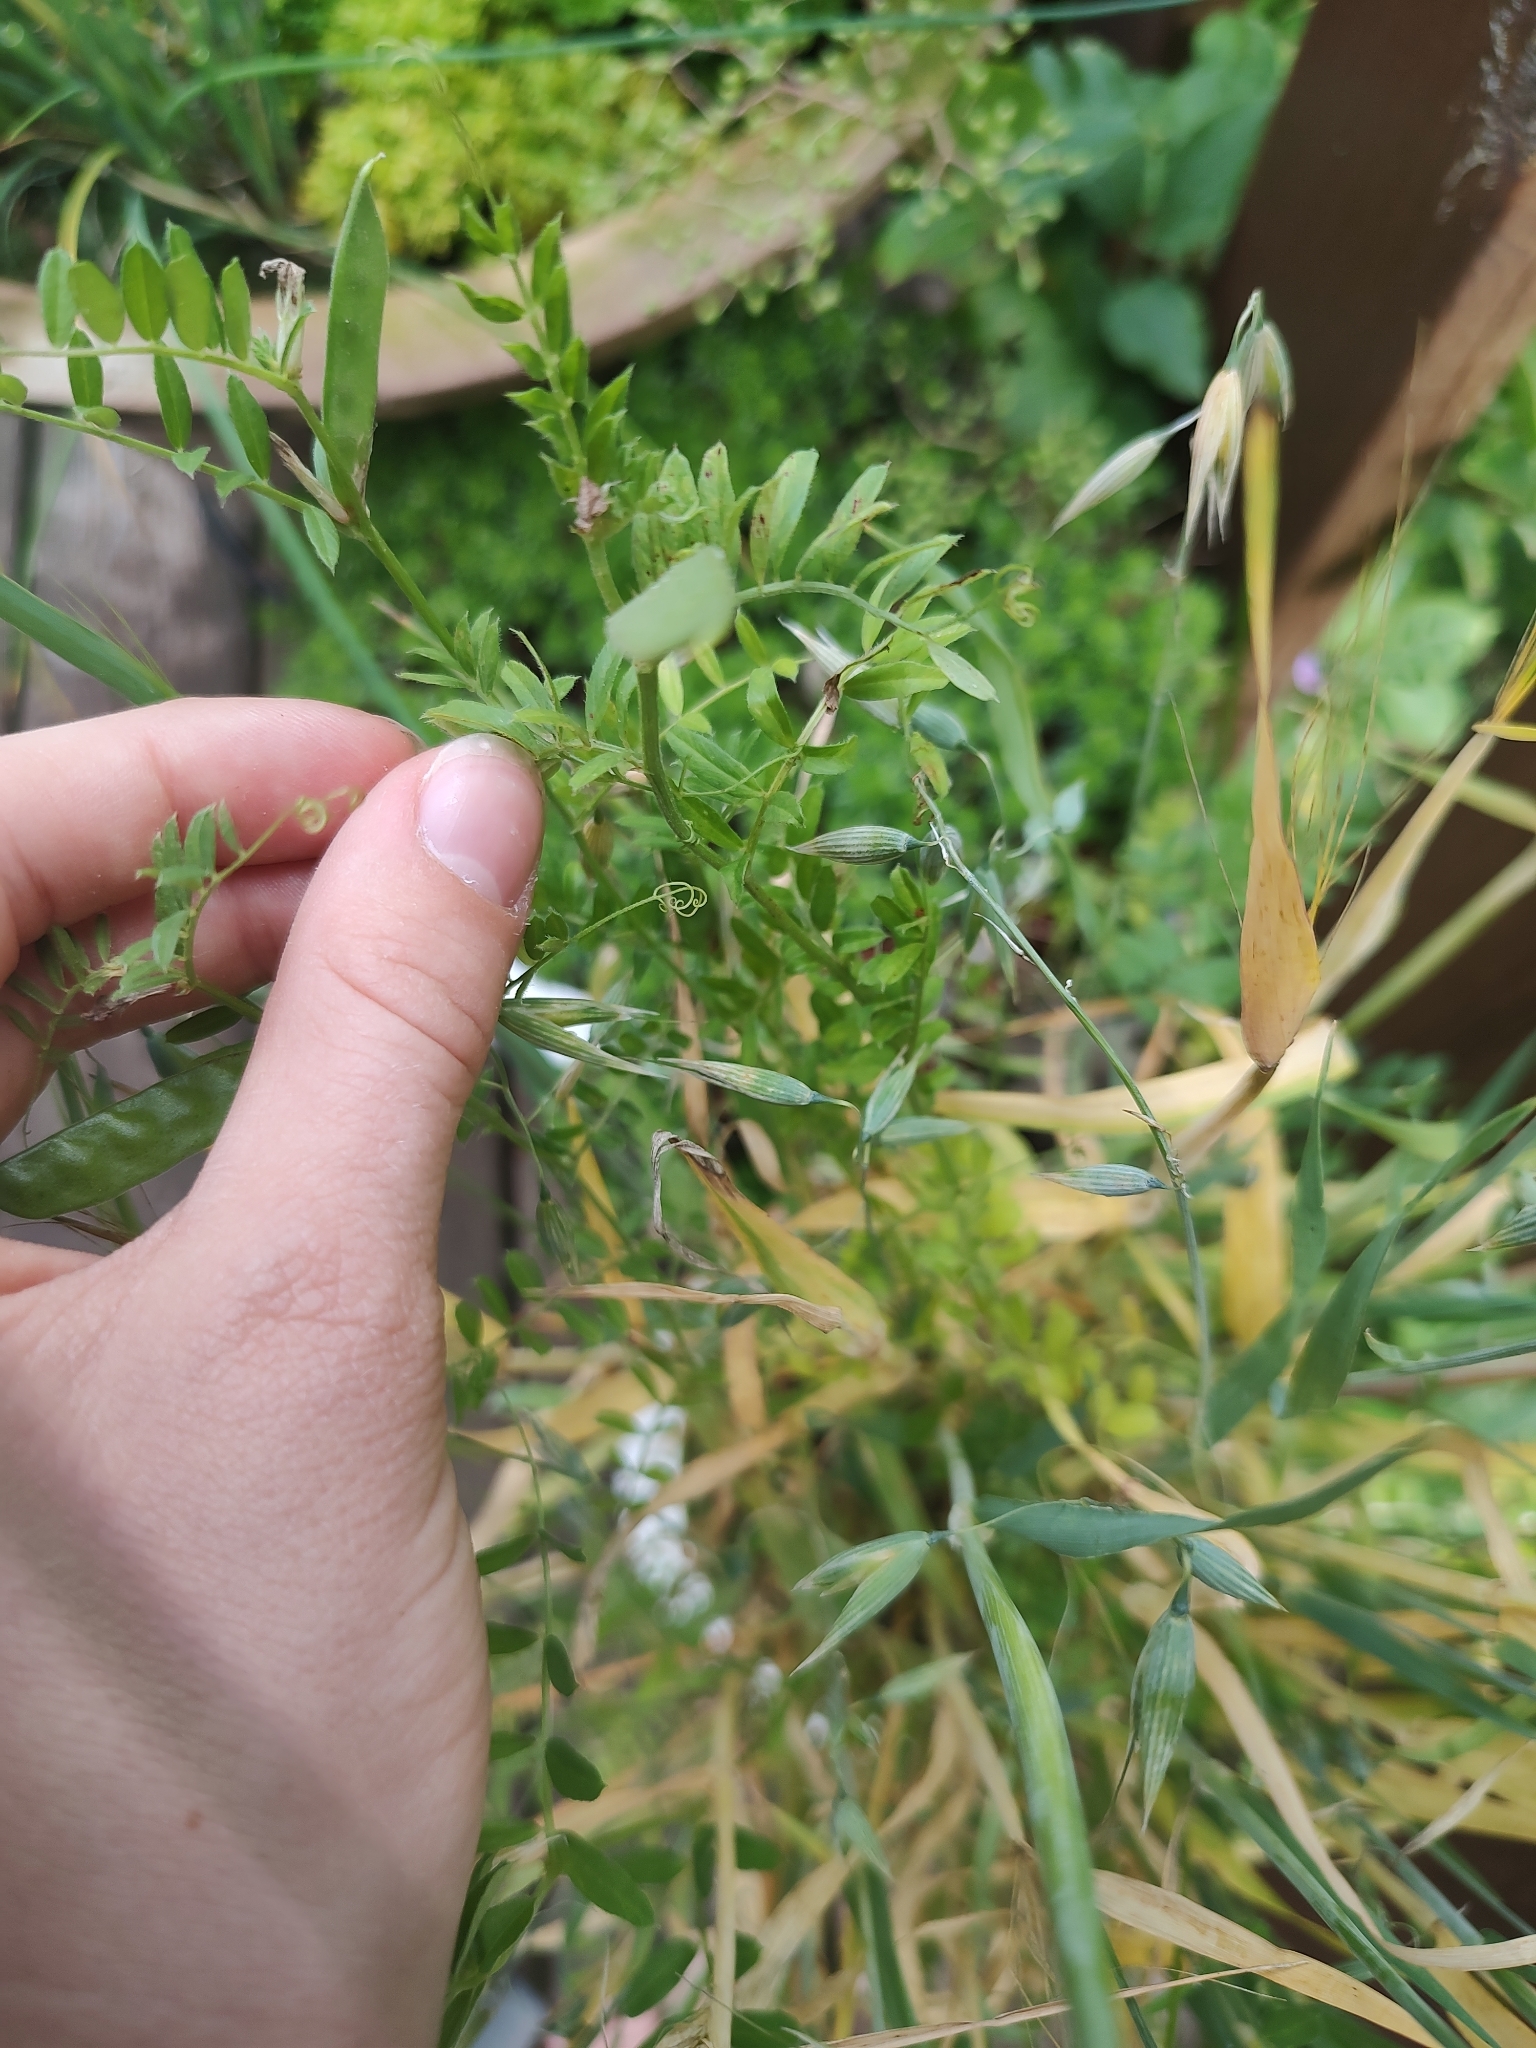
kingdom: Plantae
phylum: Tracheophyta
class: Magnoliopsida
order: Fabales
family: Fabaceae
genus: Vicia
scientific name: Vicia sativa
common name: Garden vetch
